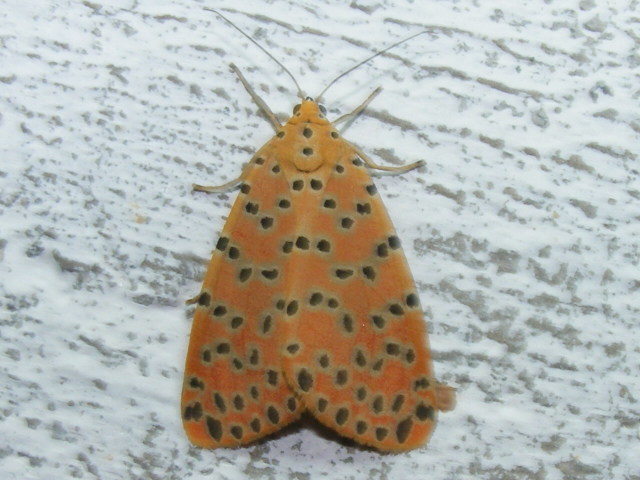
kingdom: Animalia
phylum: Arthropoda
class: Insecta
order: Lepidoptera
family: Erebidae
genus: Argina
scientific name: Argina astrea
